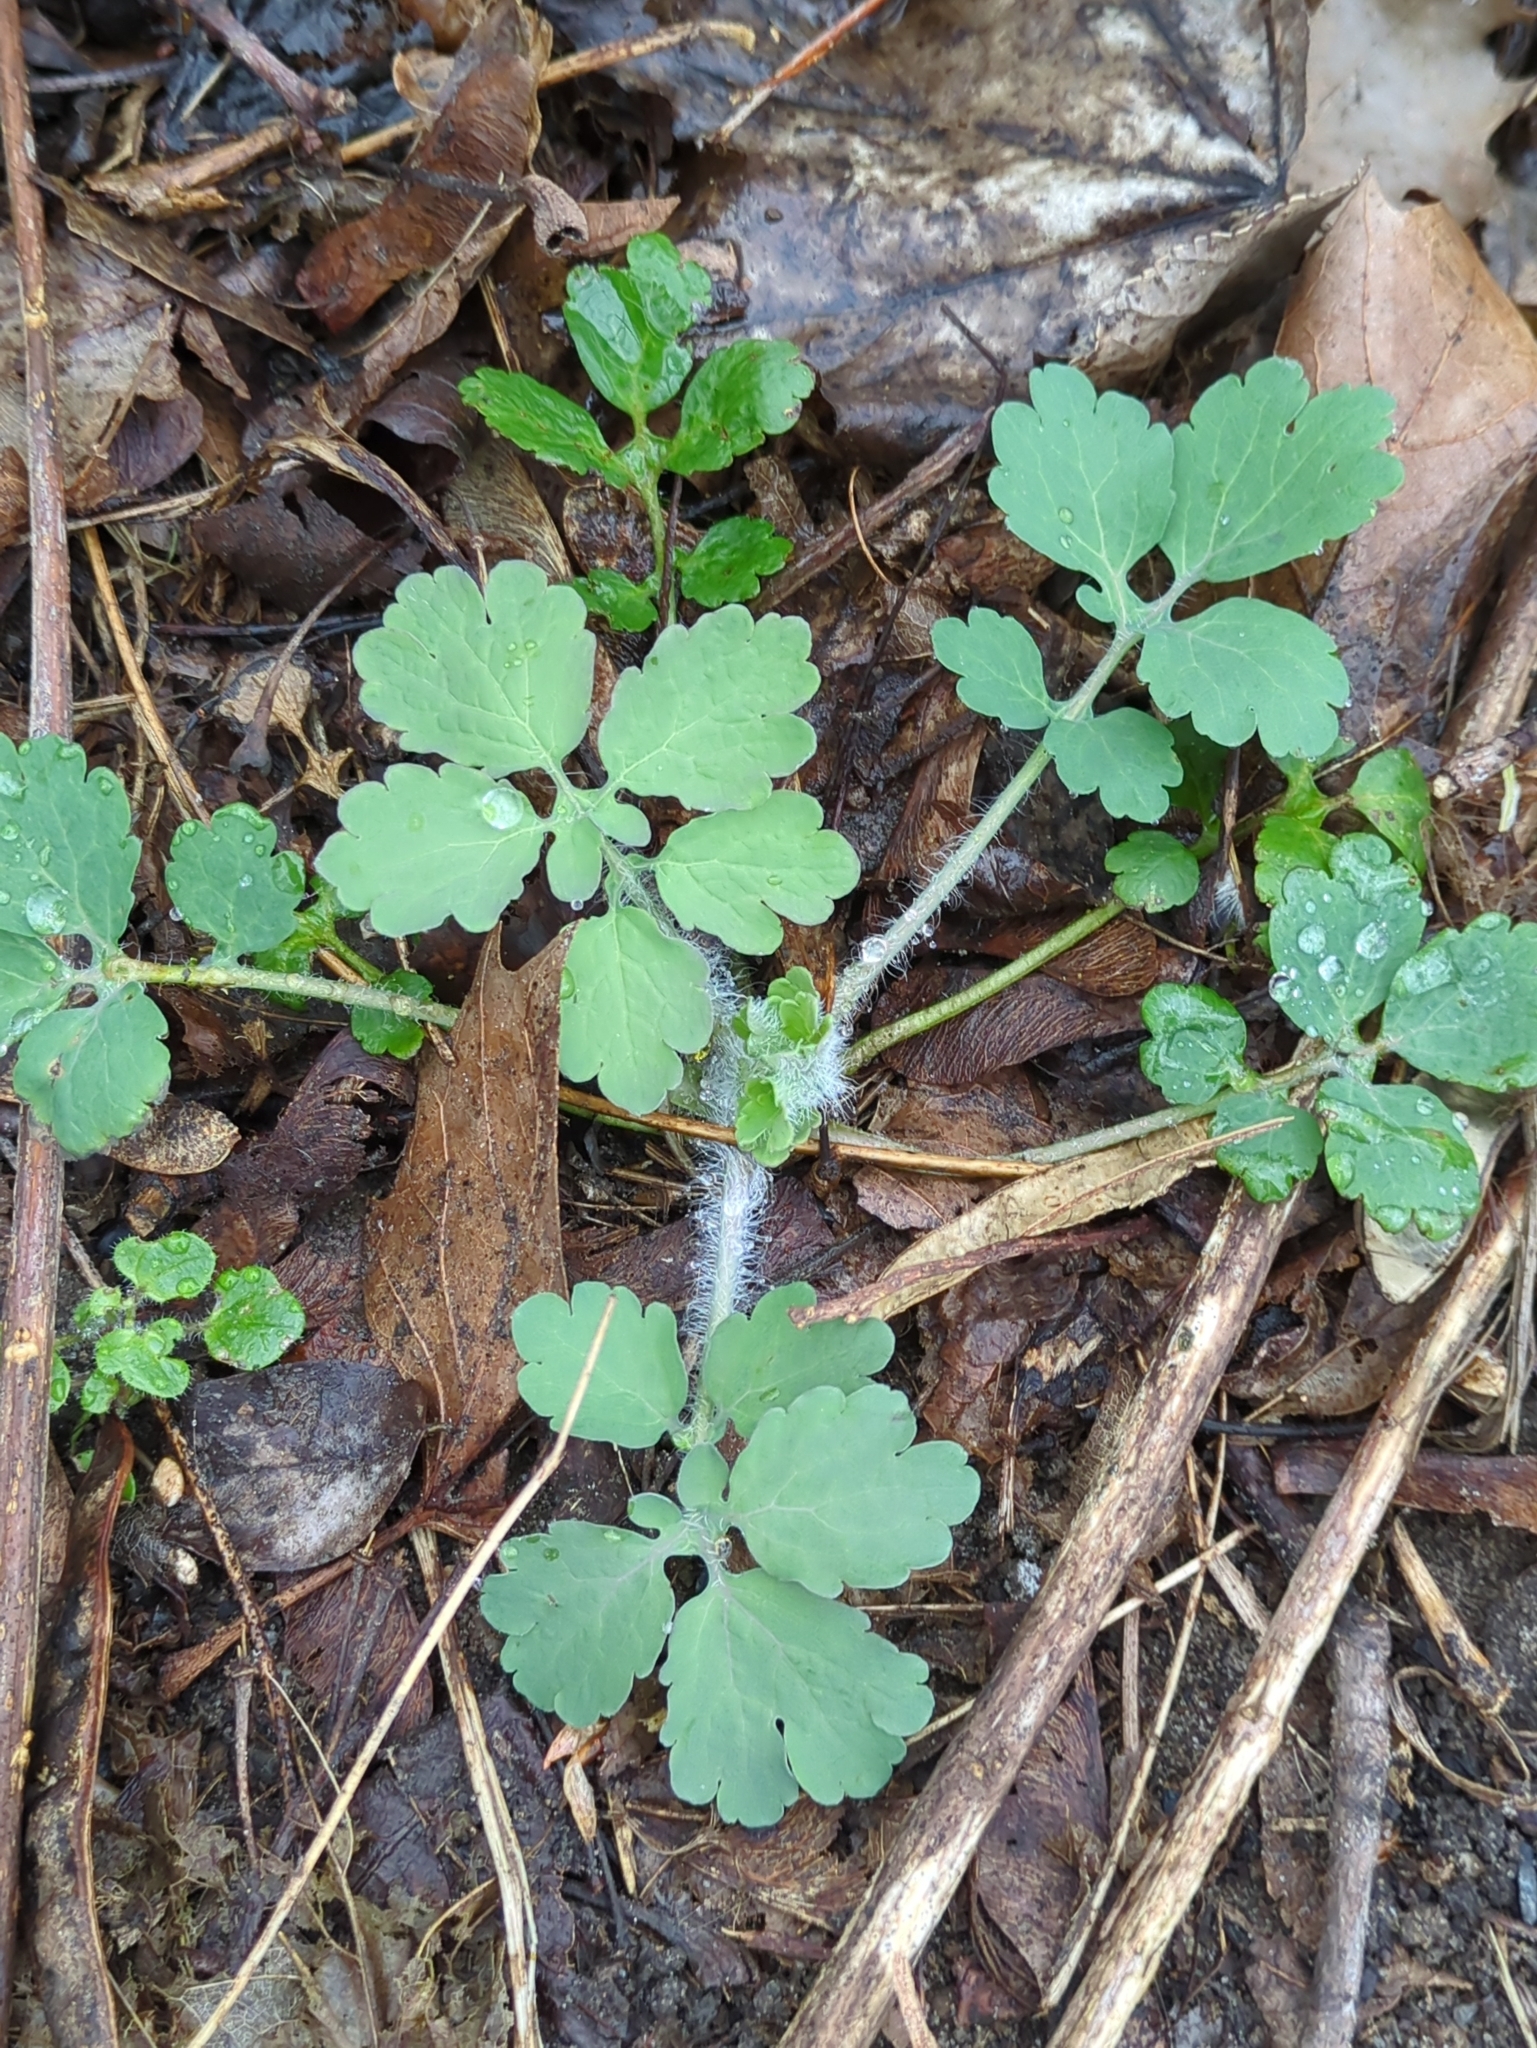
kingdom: Plantae
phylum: Tracheophyta
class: Magnoliopsida
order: Ranunculales
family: Papaveraceae
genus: Chelidonium
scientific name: Chelidonium majus
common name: Greater celandine
